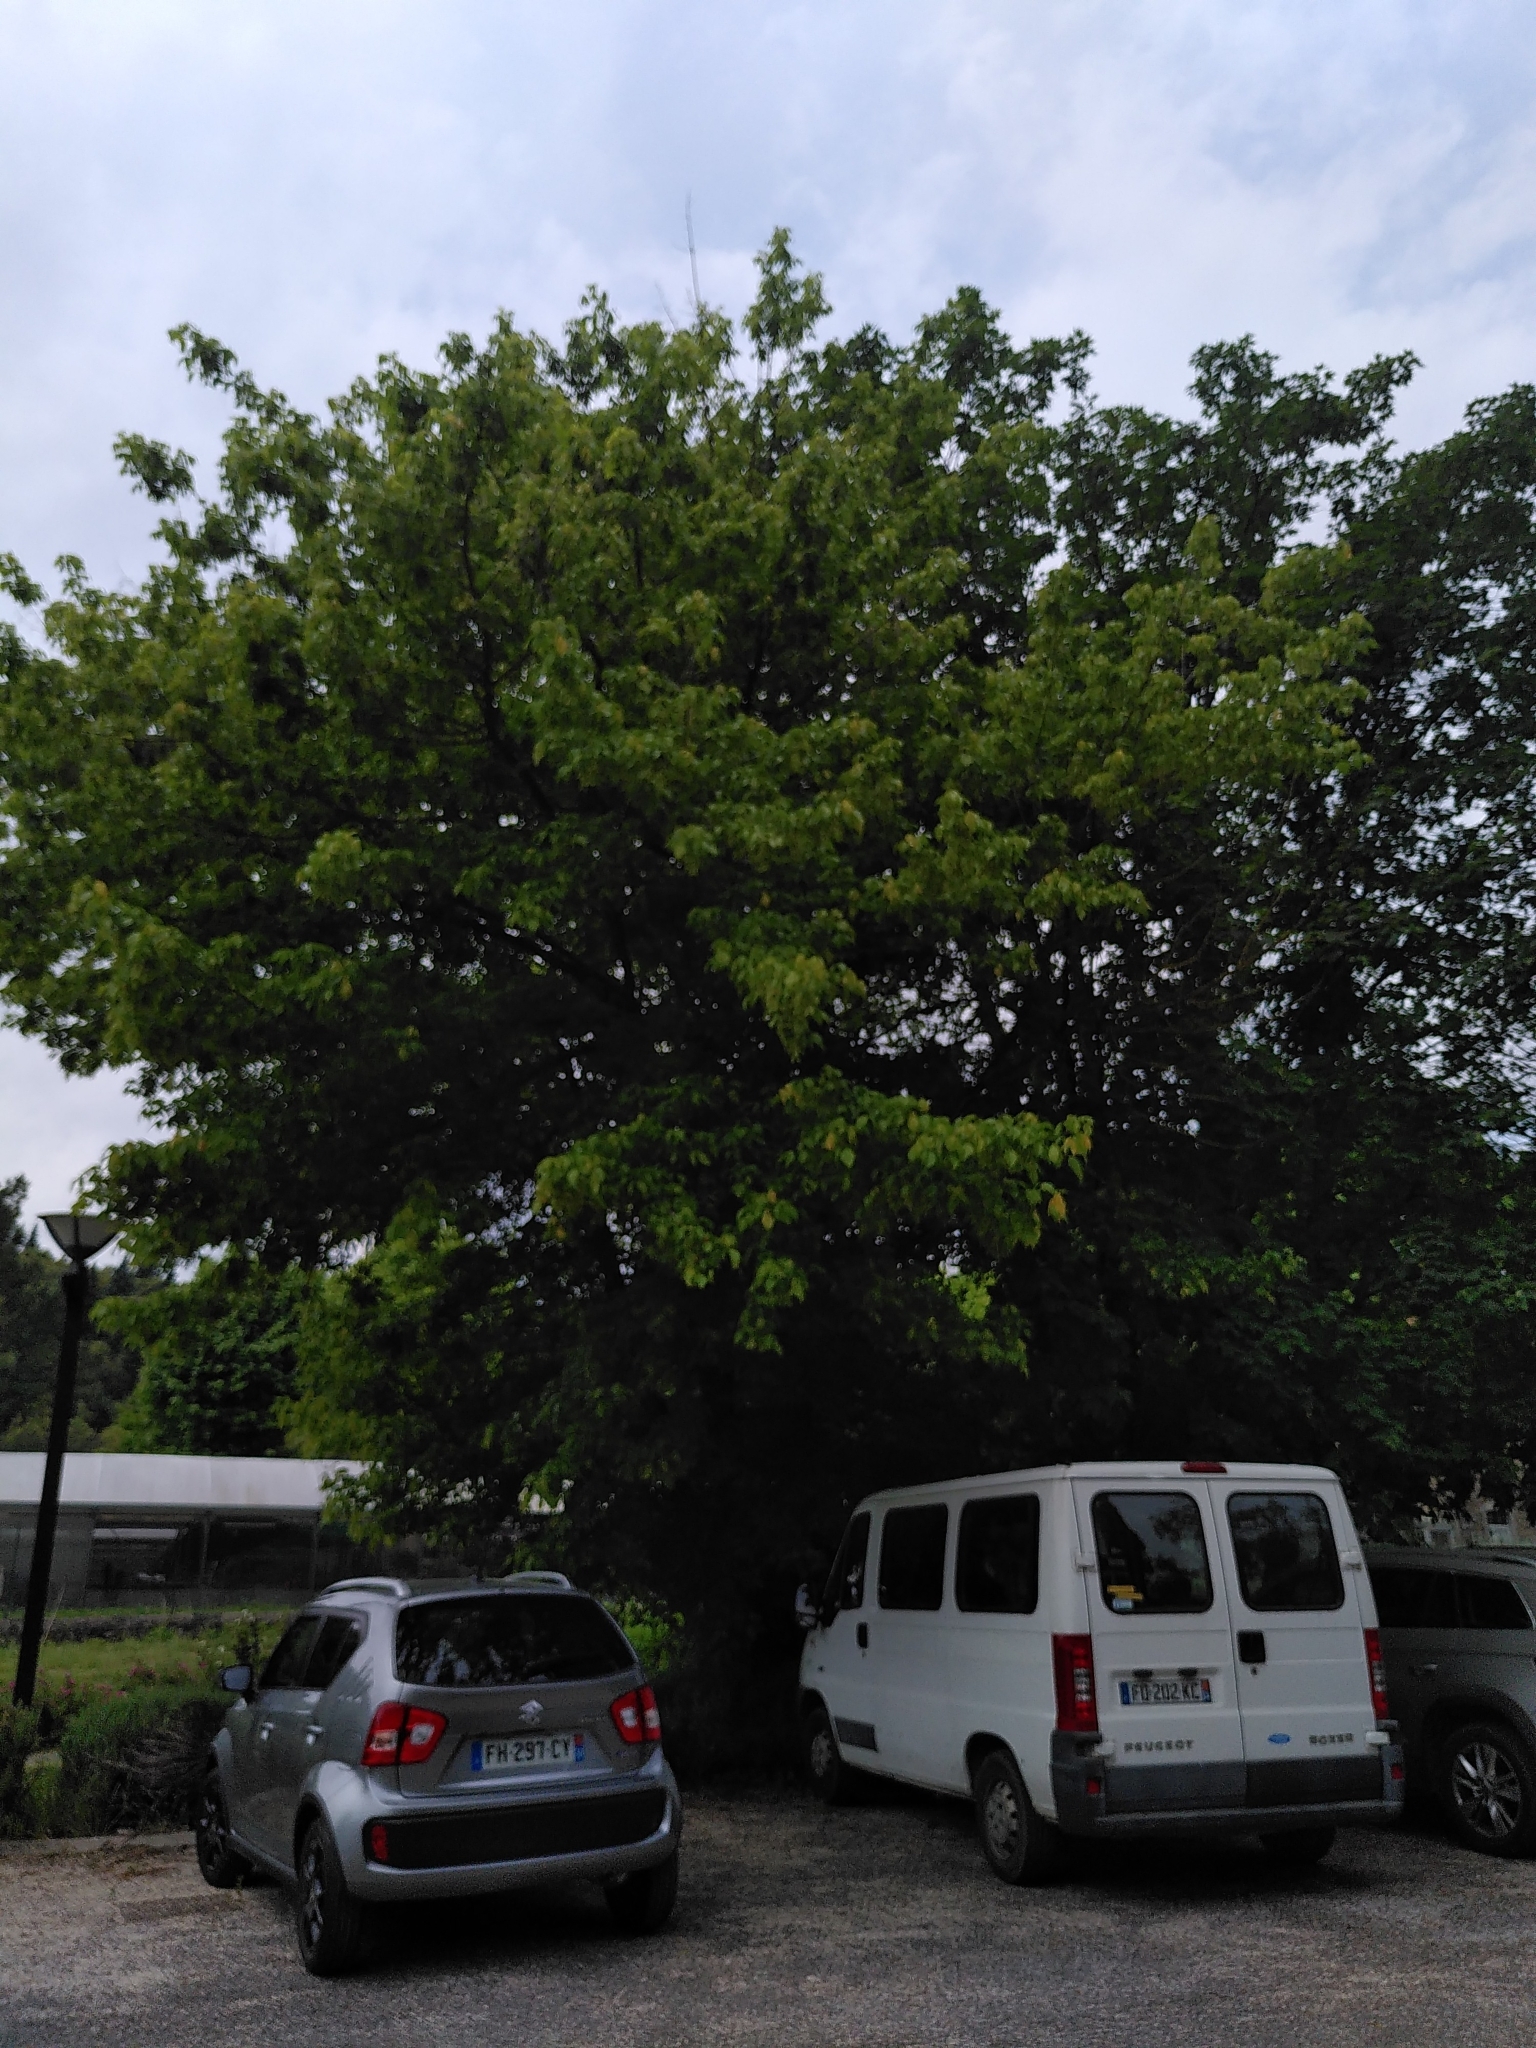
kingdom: Plantae
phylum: Tracheophyta
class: Magnoliopsida
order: Sapindales
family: Sapindaceae
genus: Acer
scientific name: Acer negundo
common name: Ashleaf maple
